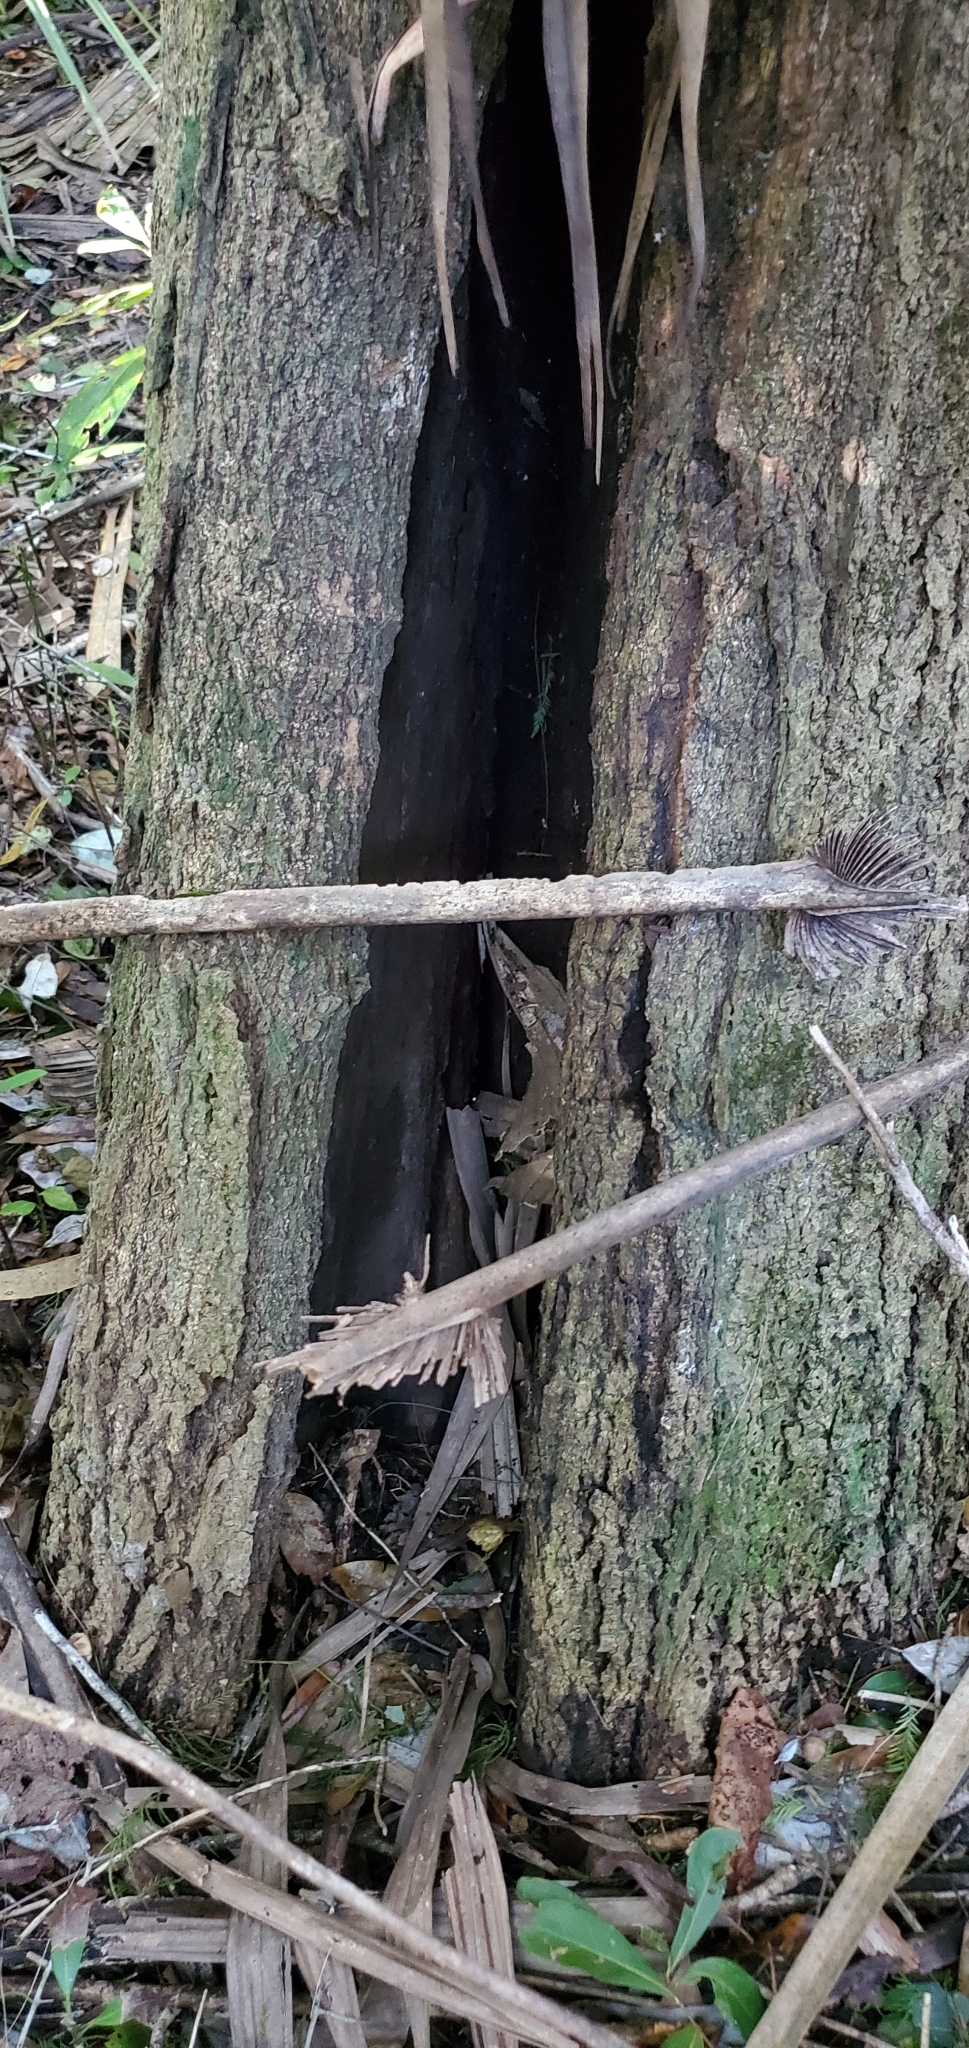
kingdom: Plantae
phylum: Tracheophyta
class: Magnoliopsida
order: Magnoliales
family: Magnoliaceae
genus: Magnolia
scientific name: Magnolia virginiana
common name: Swamp bay
